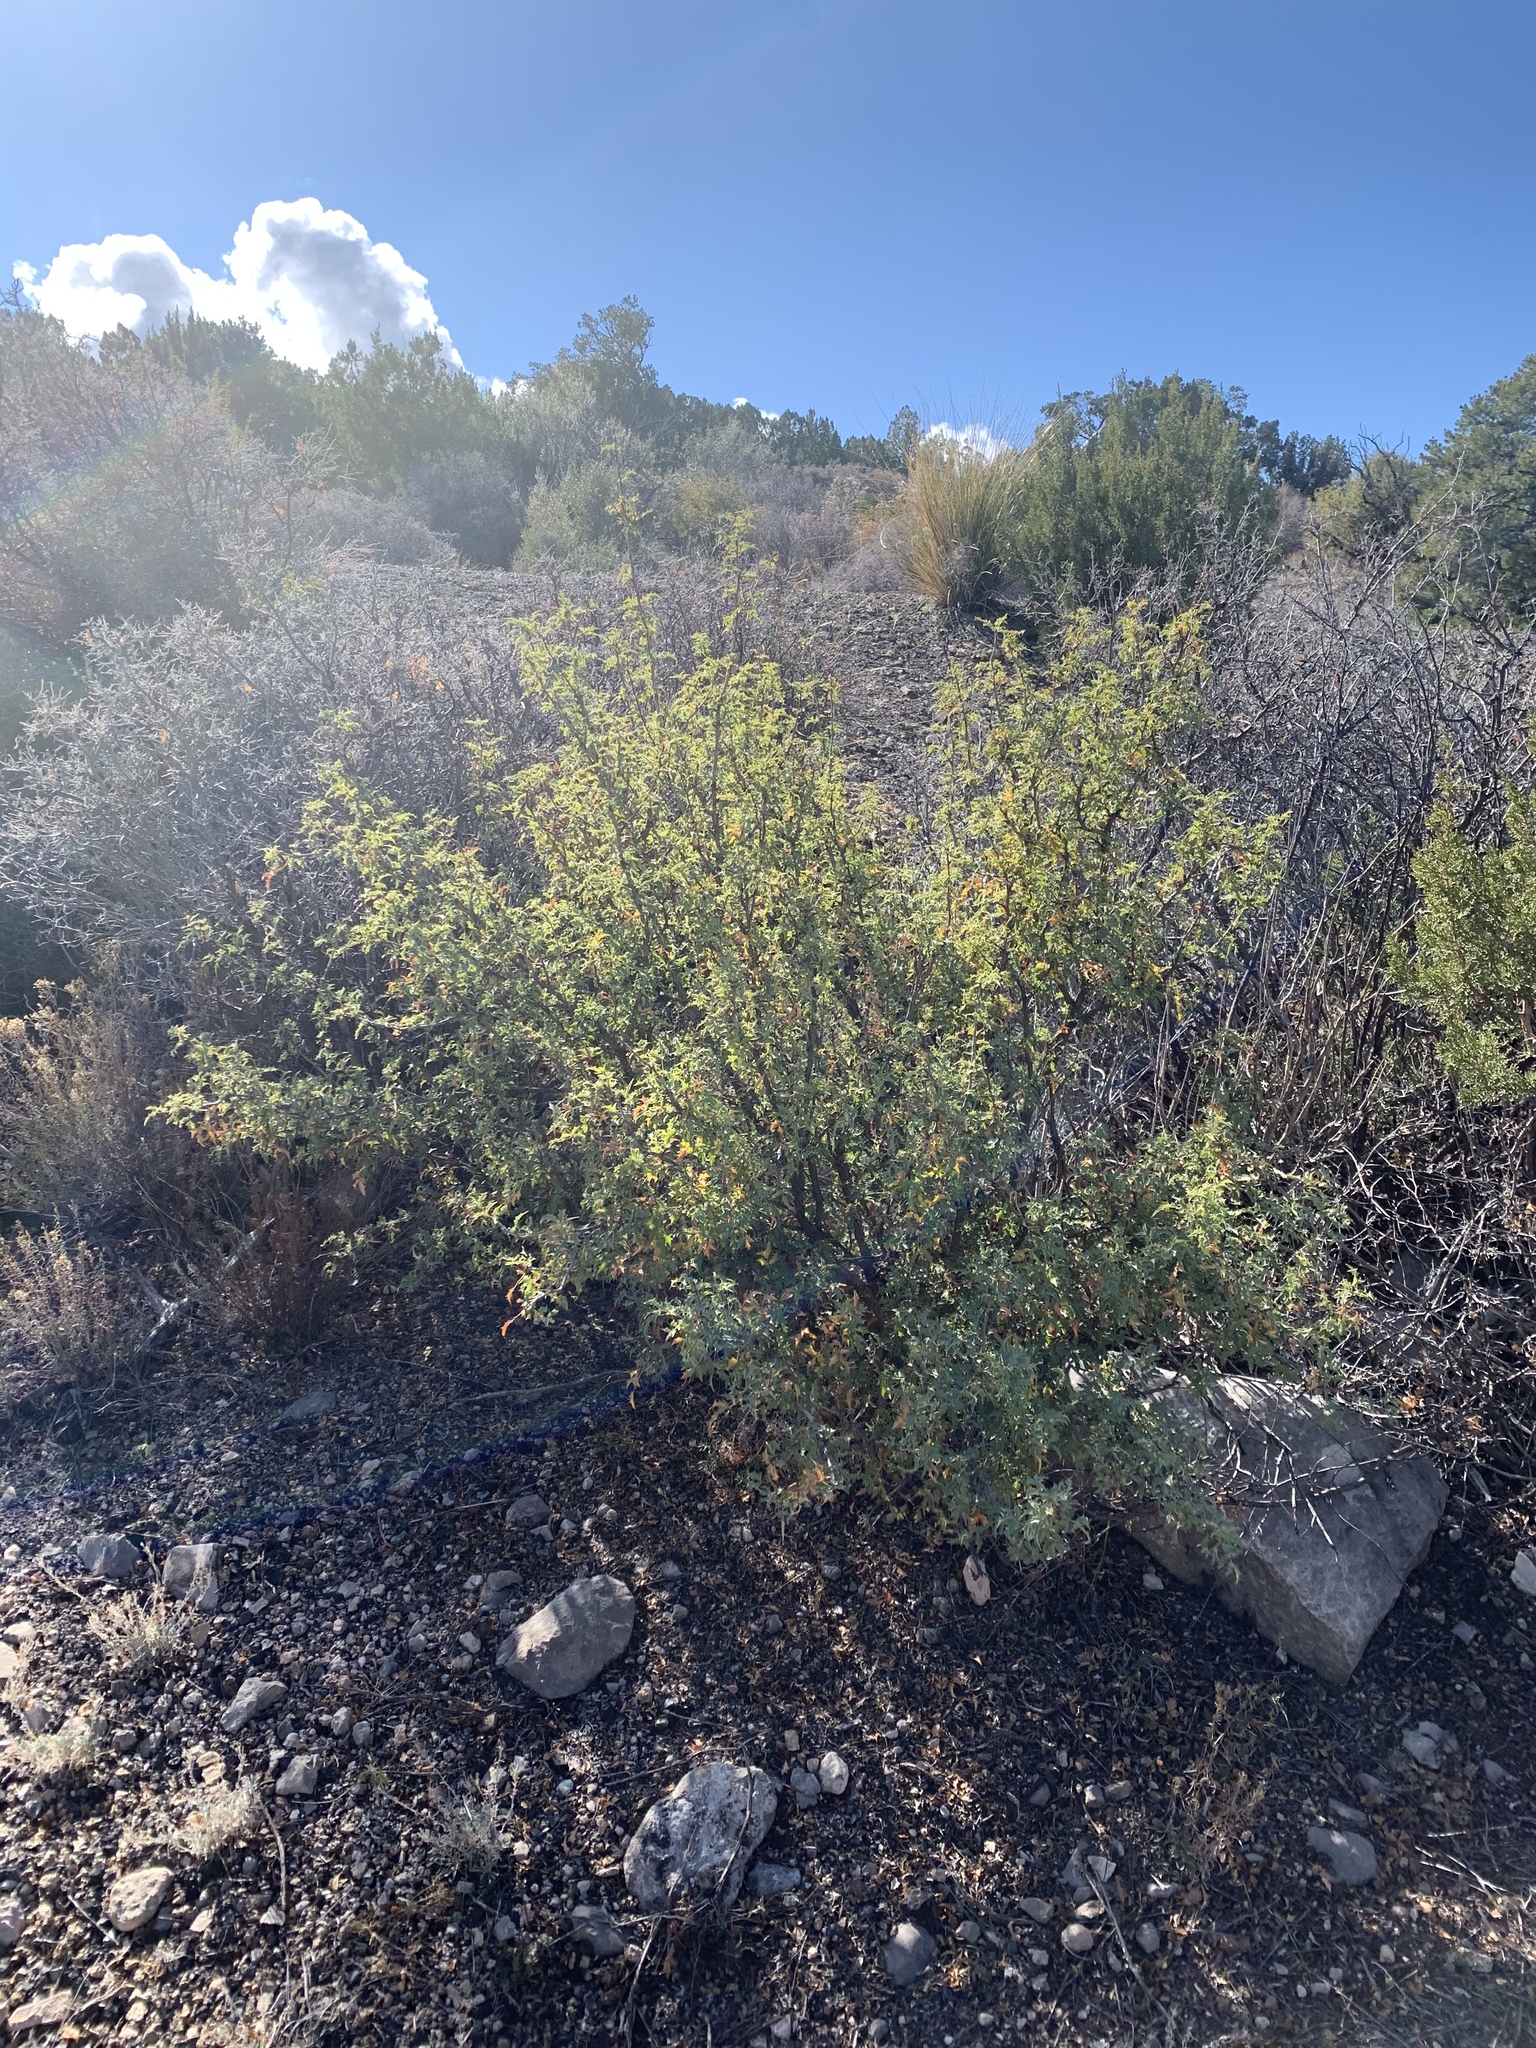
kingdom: Plantae
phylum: Tracheophyta
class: Magnoliopsida
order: Ranunculales
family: Berberidaceae
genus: Alloberberis
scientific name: Alloberberis haematocarpa
